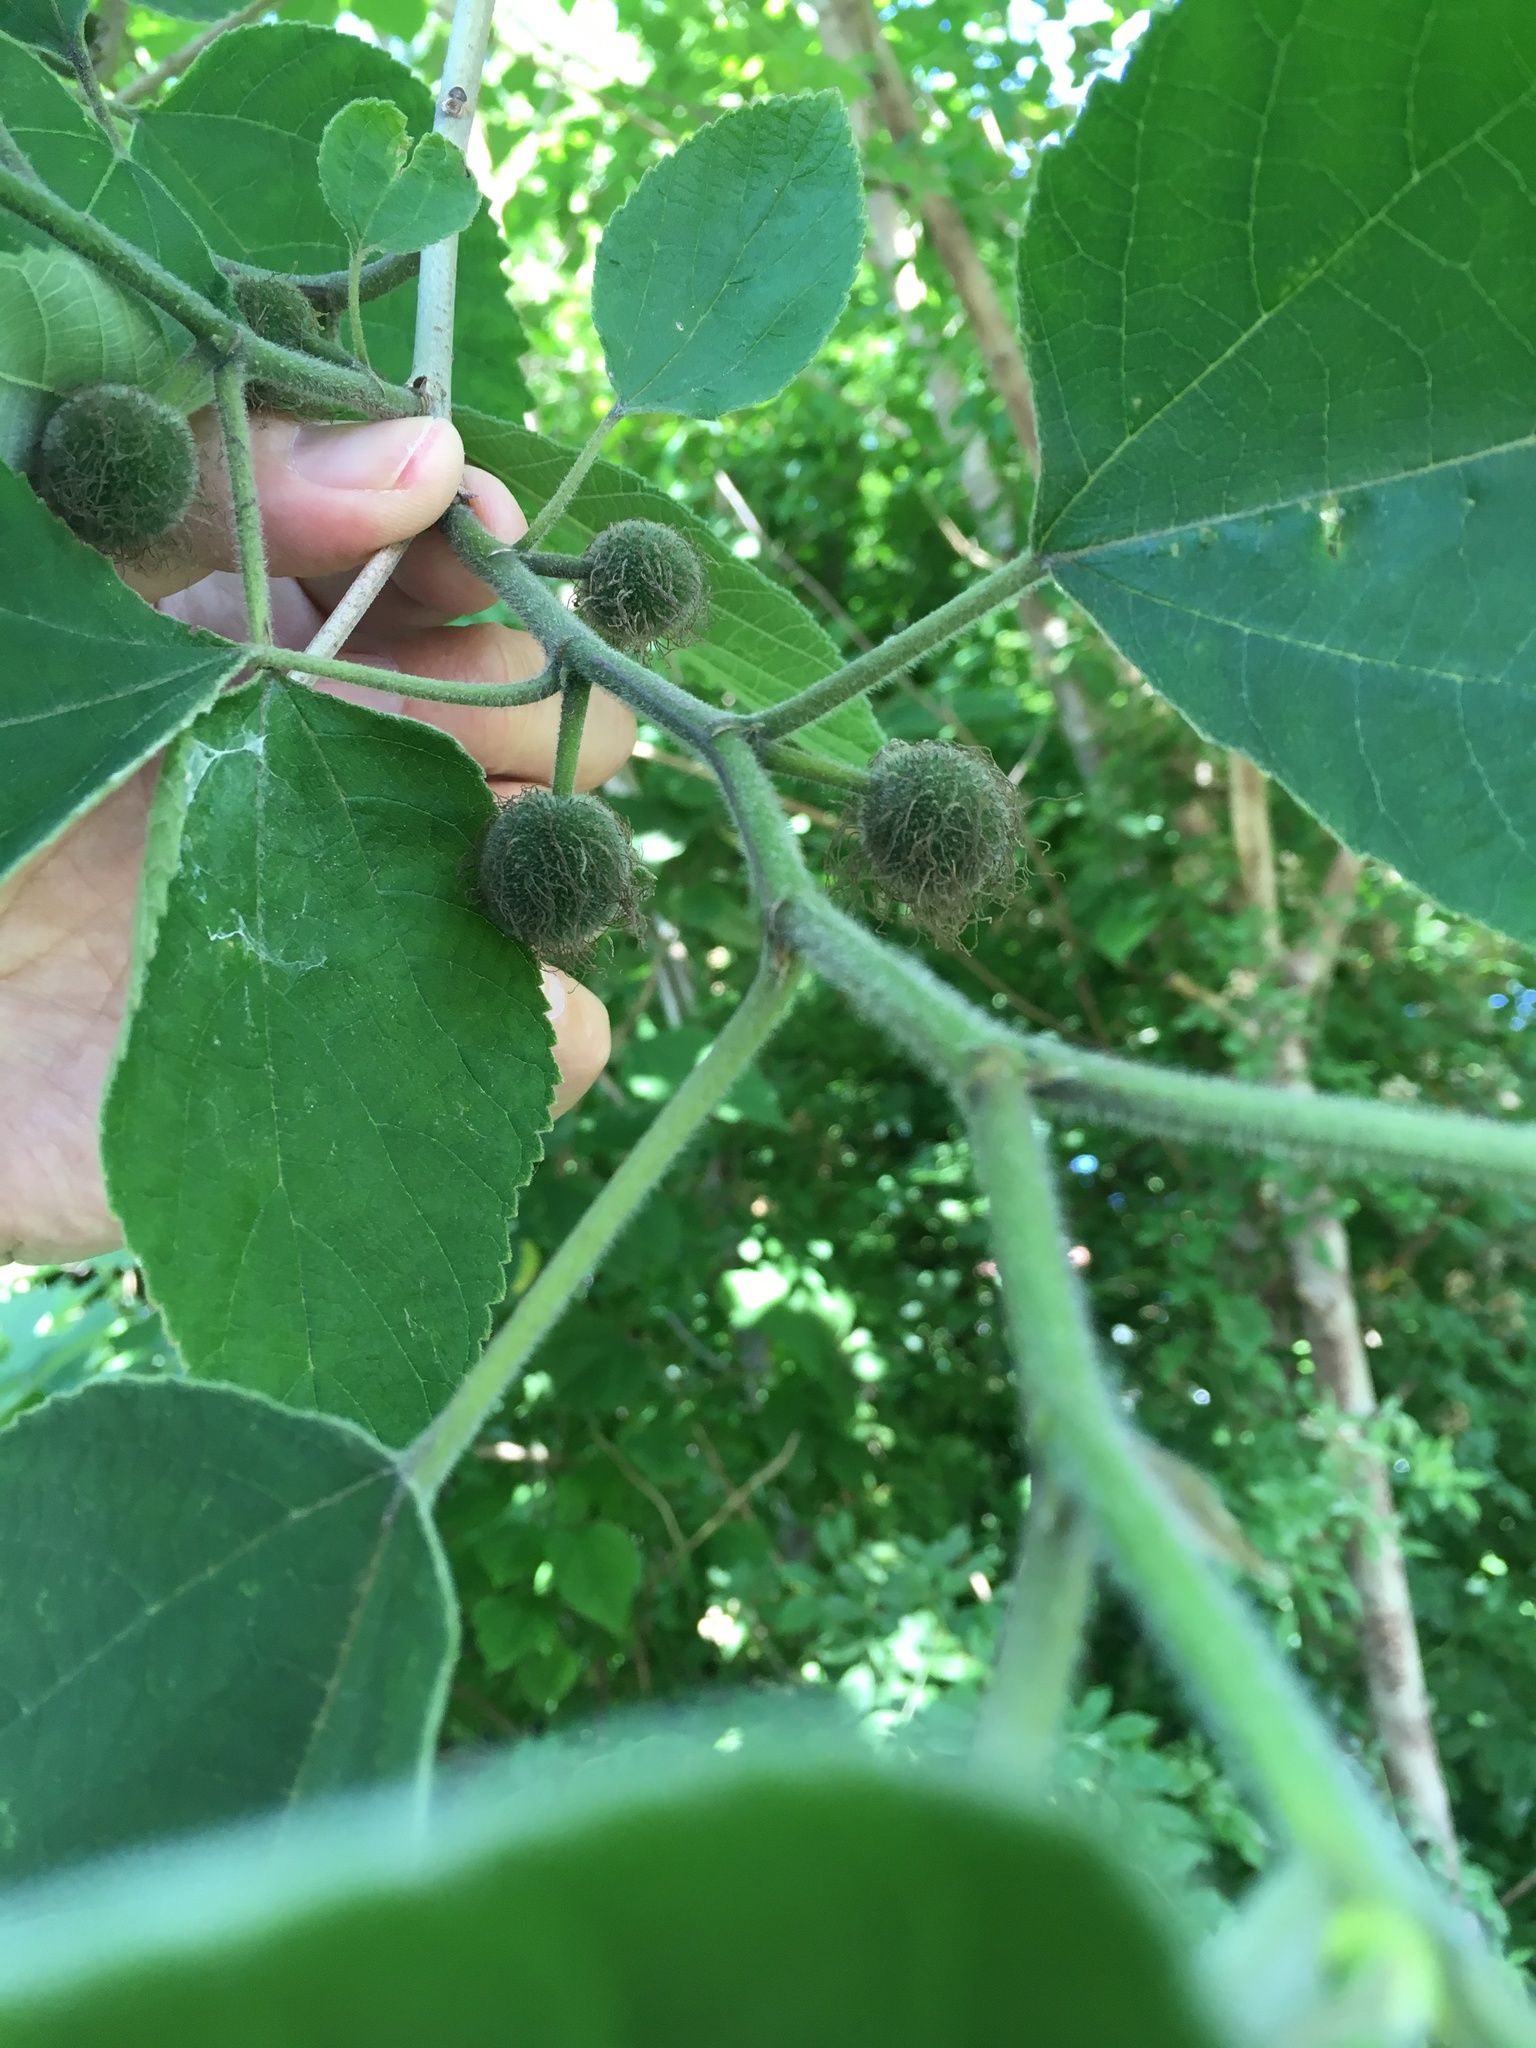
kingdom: Plantae
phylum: Tracheophyta
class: Magnoliopsida
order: Rosales
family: Moraceae
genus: Broussonetia
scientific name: Broussonetia papyrifera
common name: Paper mulberry
